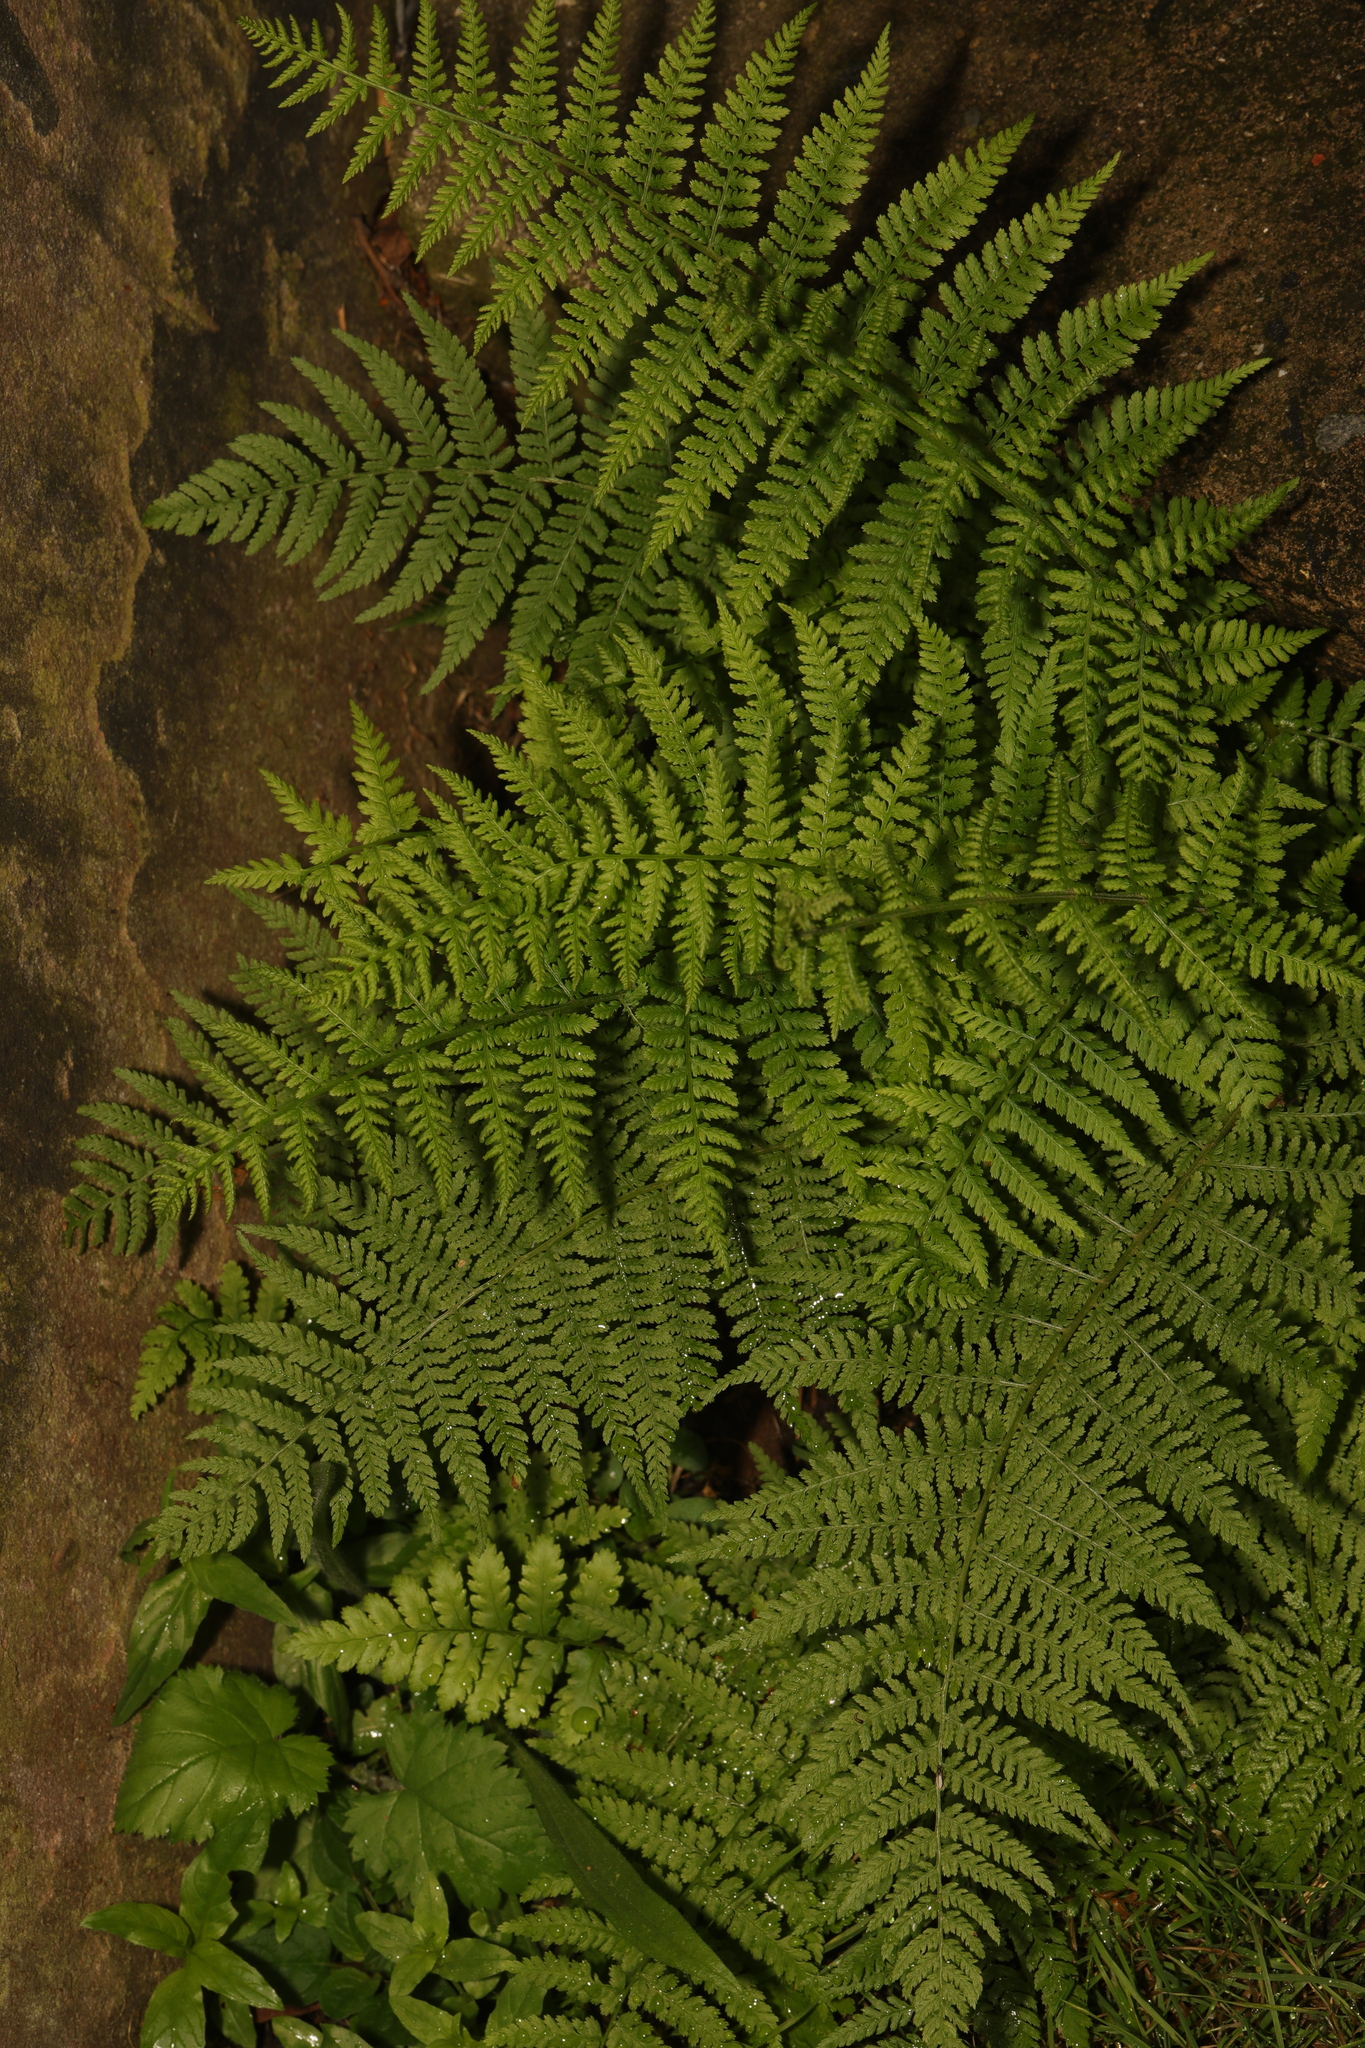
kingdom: Plantae
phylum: Tracheophyta
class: Polypodiopsida
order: Polypodiales
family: Dryopteridaceae
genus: Dryopteris
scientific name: Dryopteris dilatata
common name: Broad buckler-fern
